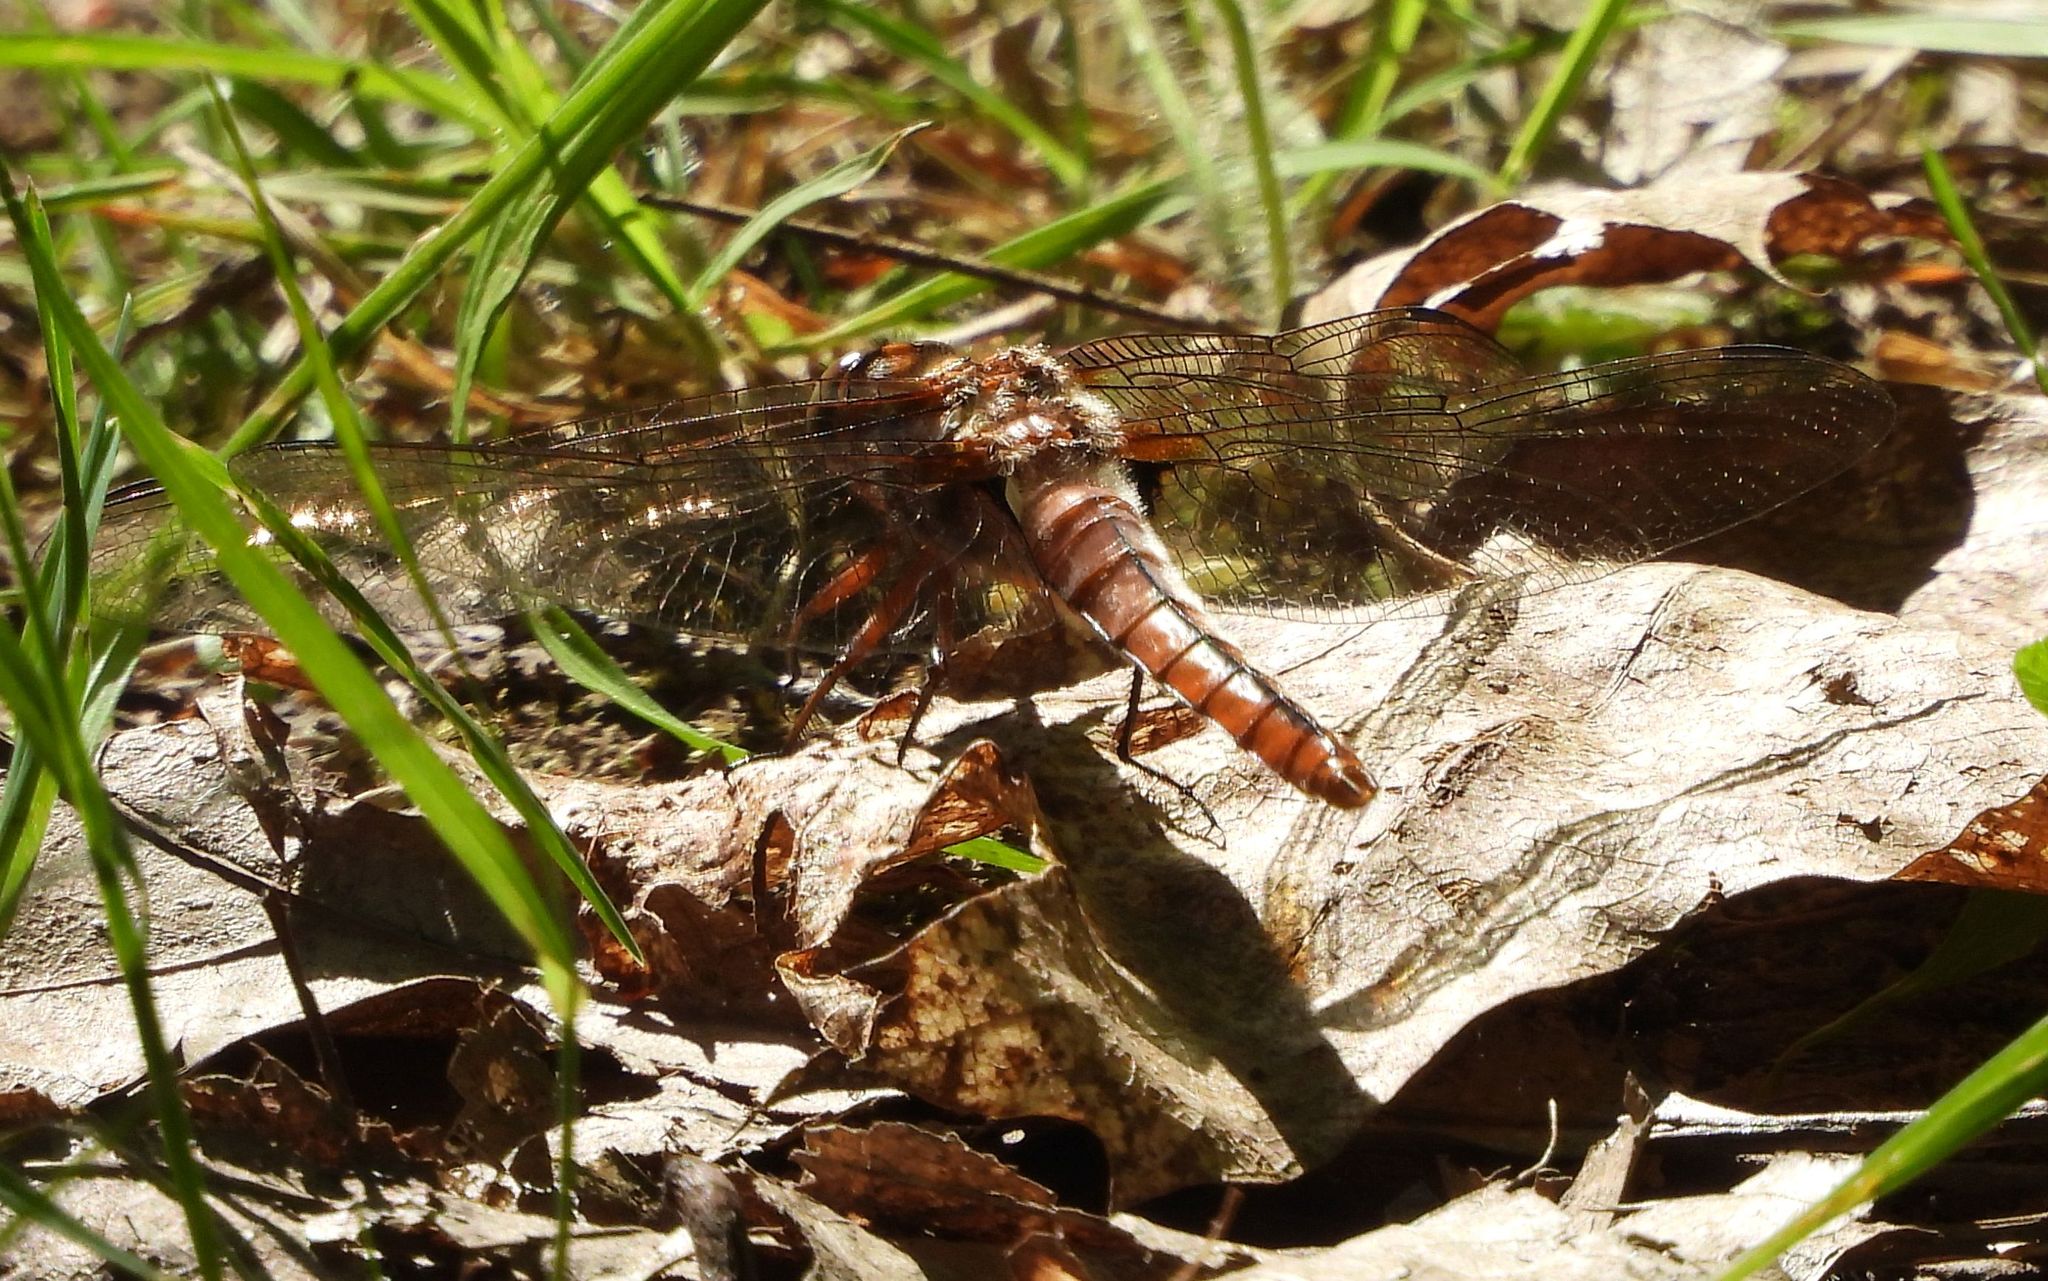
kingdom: Animalia
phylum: Arthropoda
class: Insecta
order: Odonata
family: Libellulidae
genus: Ladona
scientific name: Ladona julia
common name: Chalk-fronted corporal
